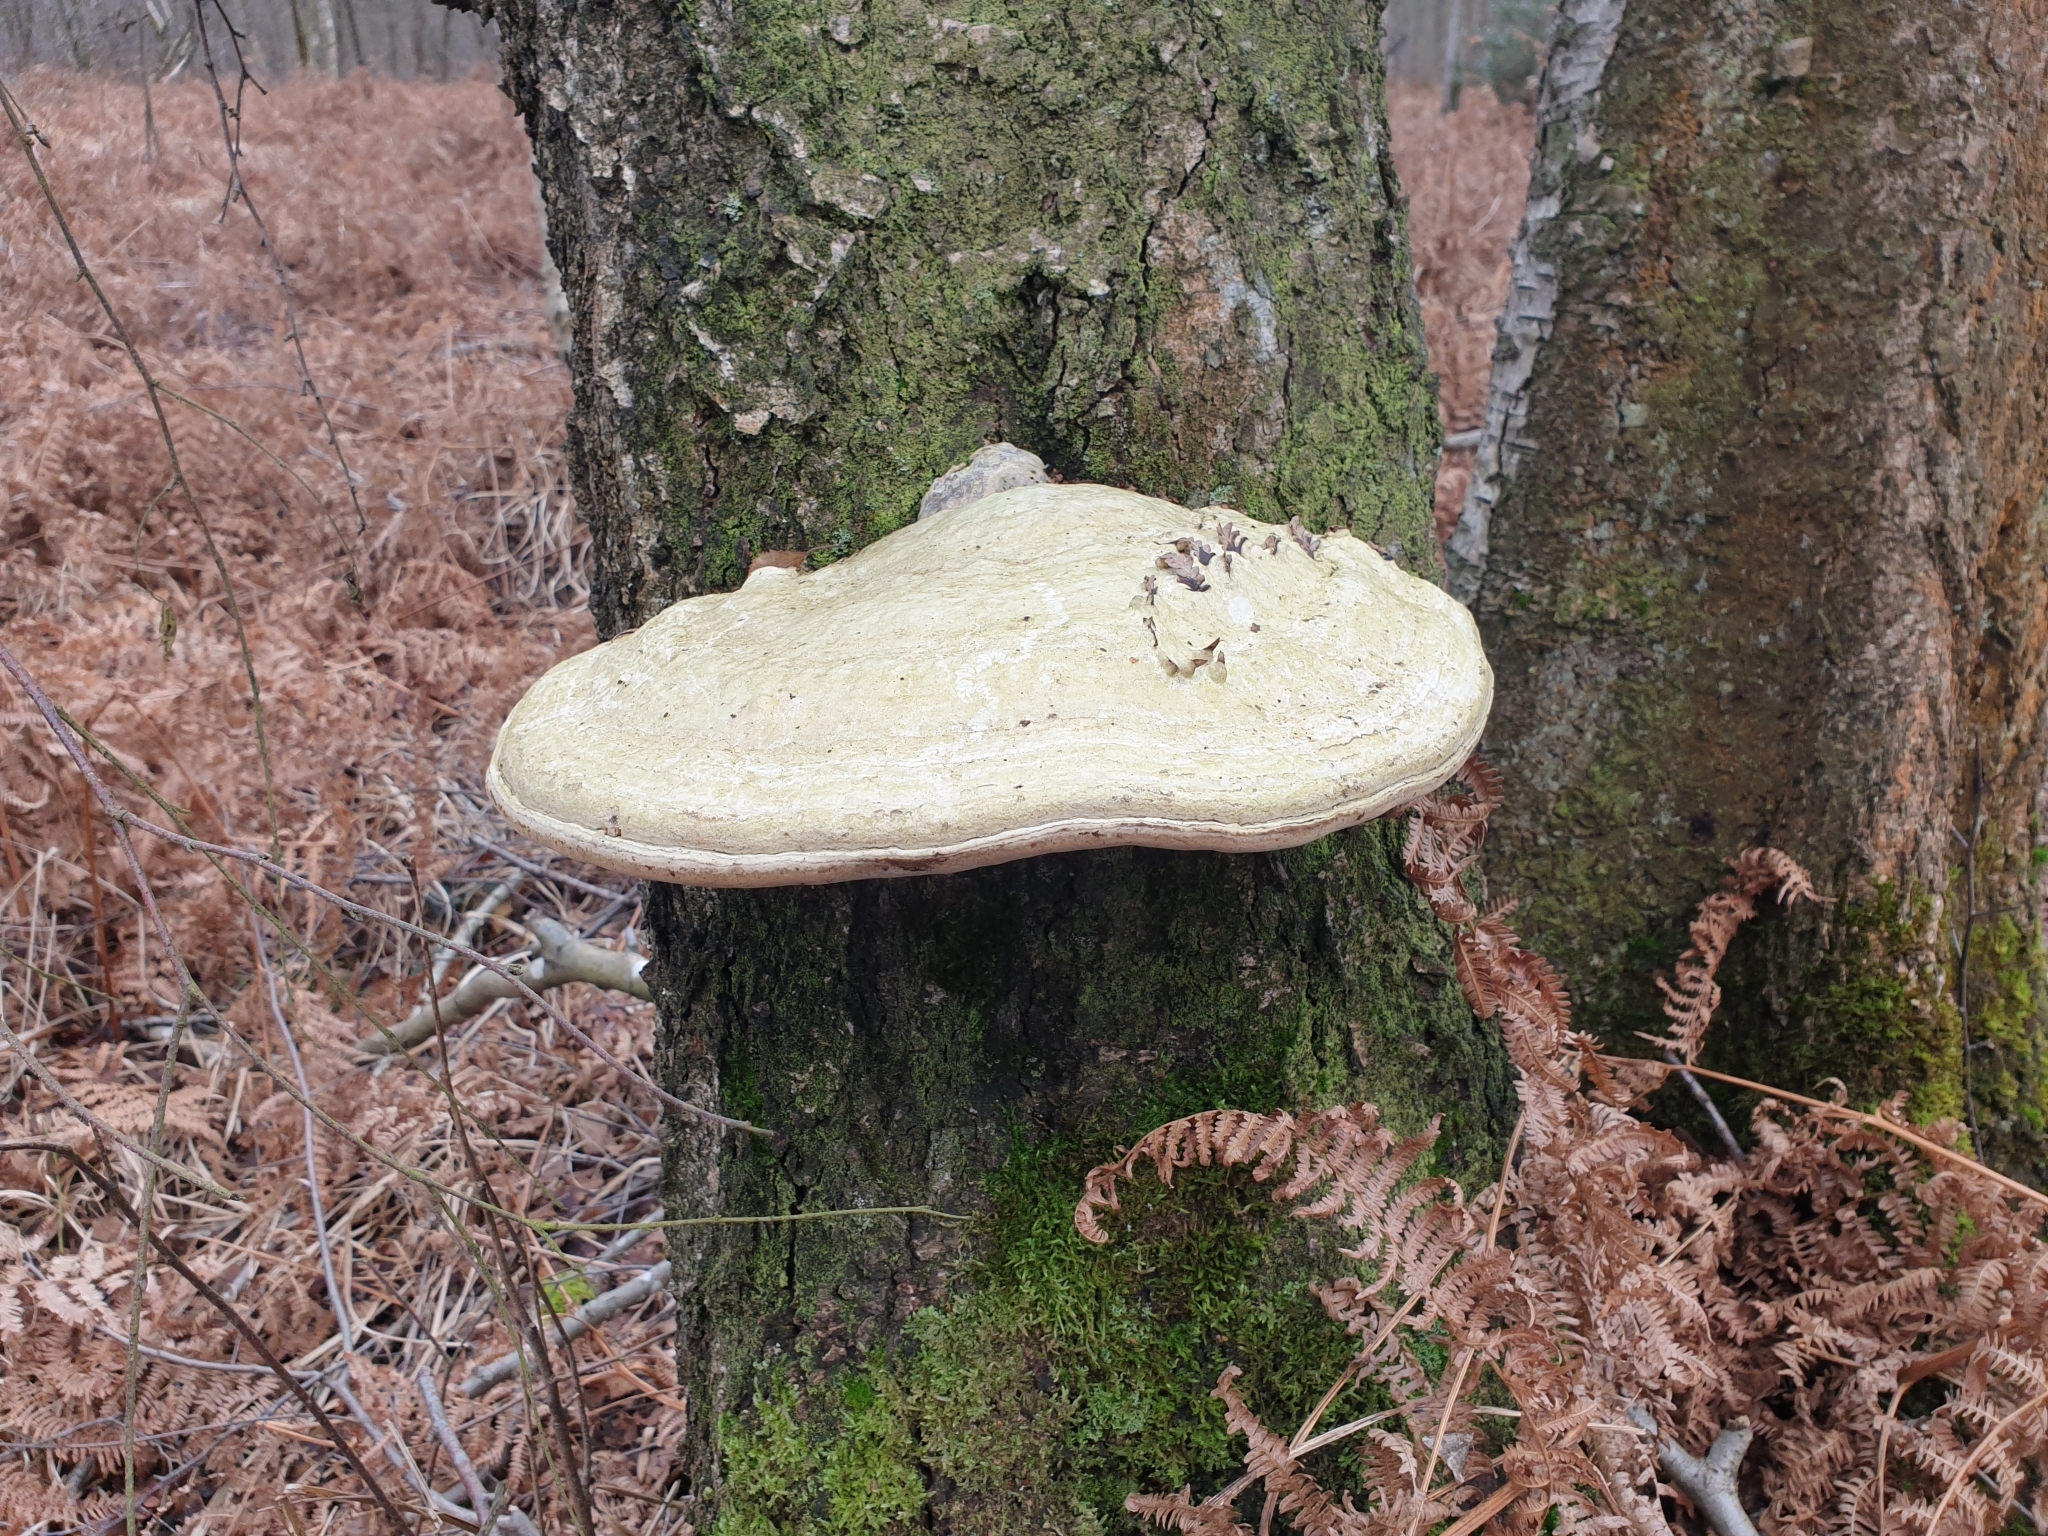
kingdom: Fungi
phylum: Basidiomycota
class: Agaricomycetes
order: Polyporales
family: Polyporaceae
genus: Fomes
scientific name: Fomes fomentarius
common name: Hoof fungus
